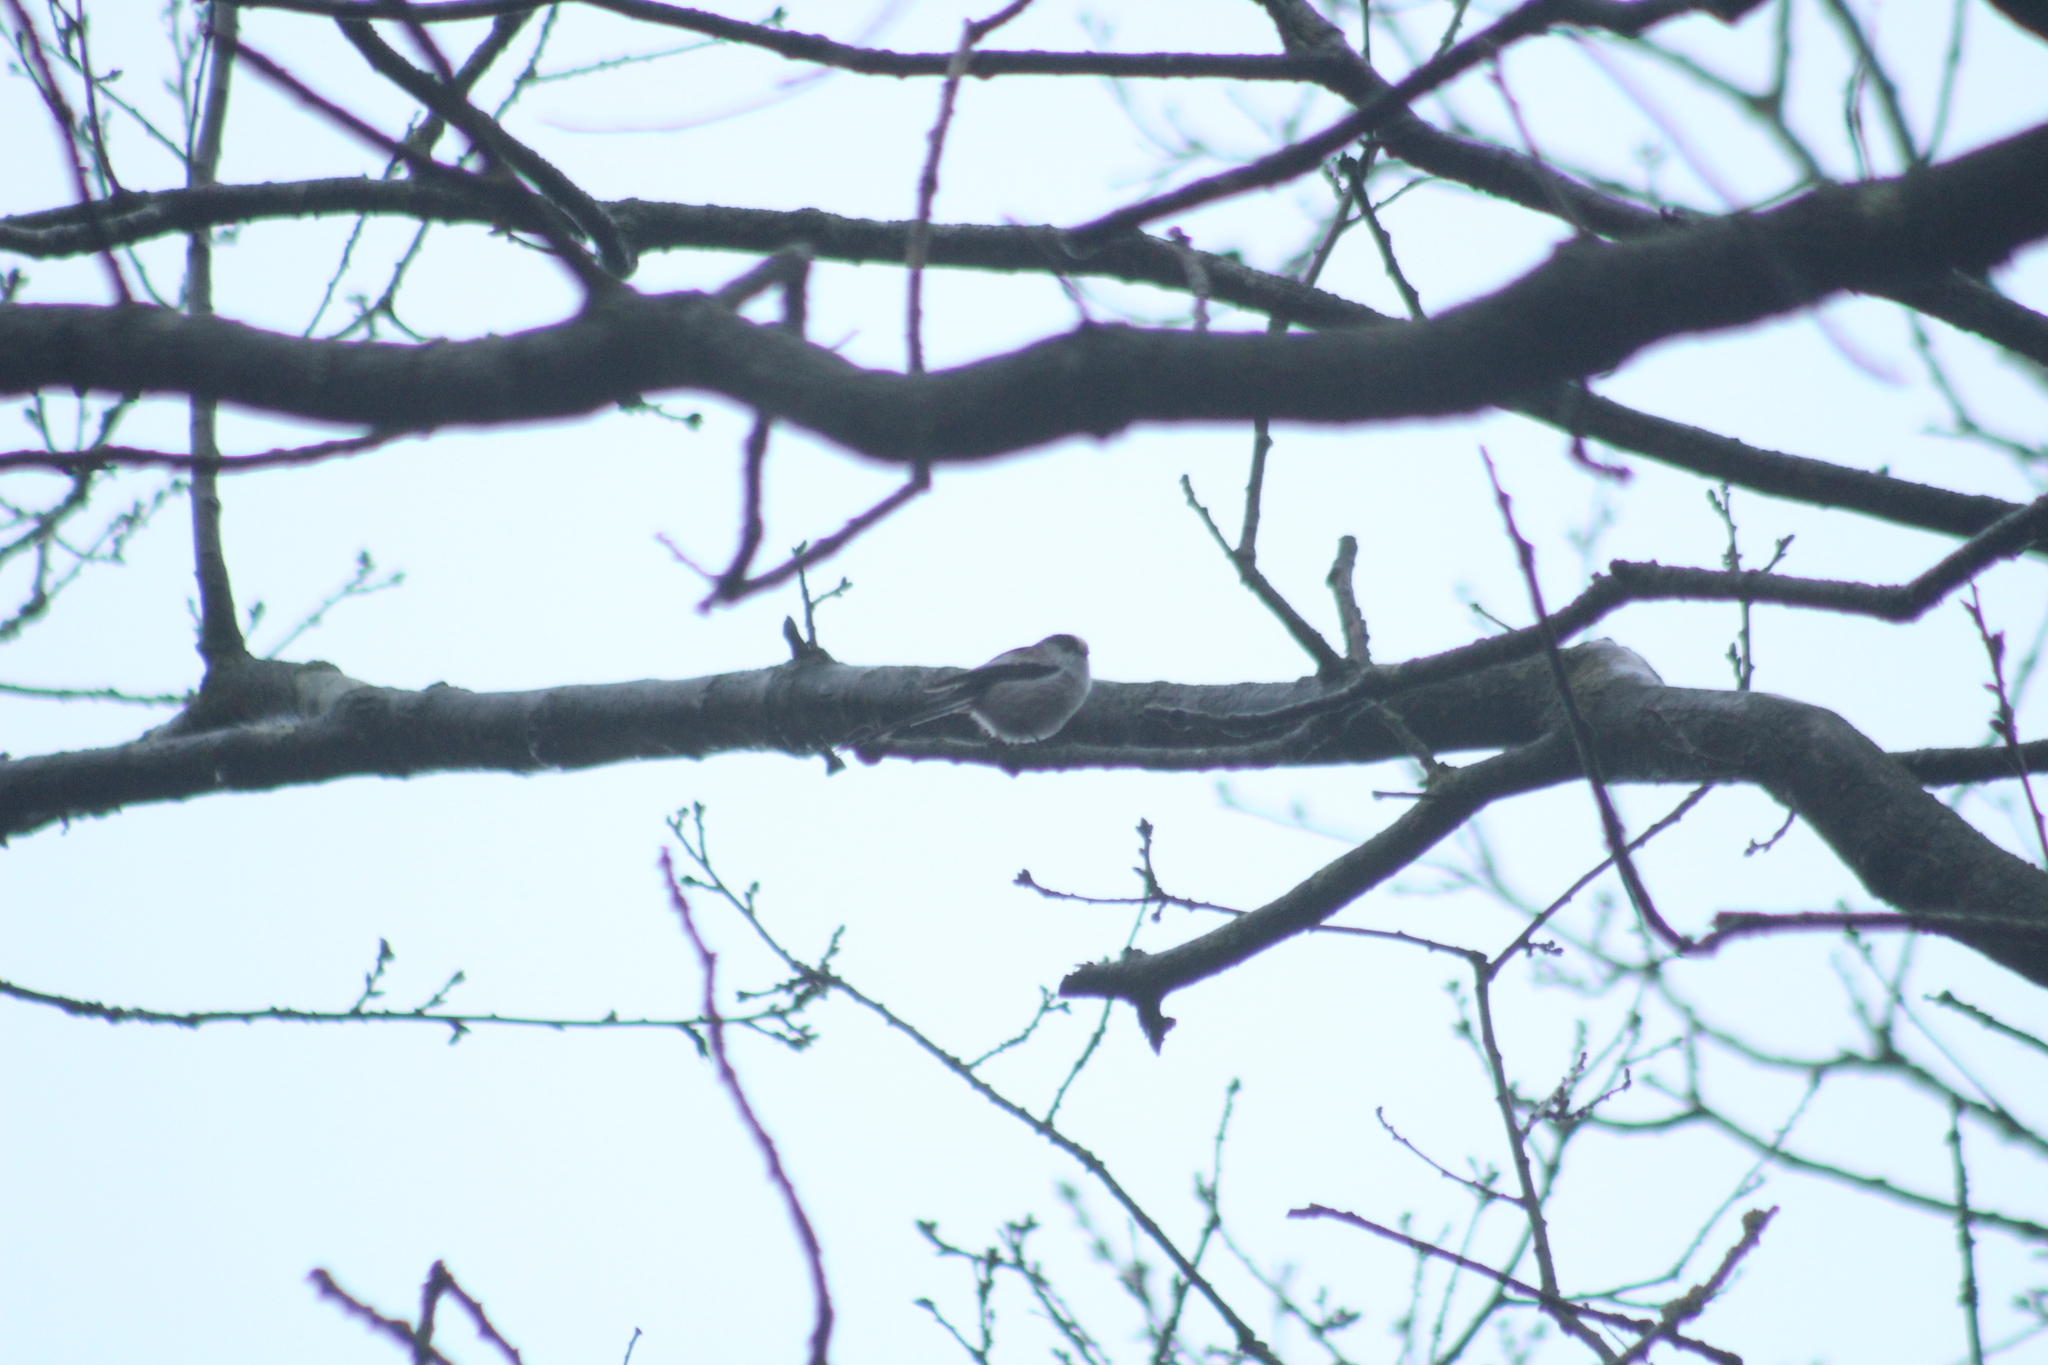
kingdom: Animalia
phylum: Chordata
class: Aves
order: Passeriformes
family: Aegithalidae
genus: Aegithalos
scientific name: Aegithalos caudatus
